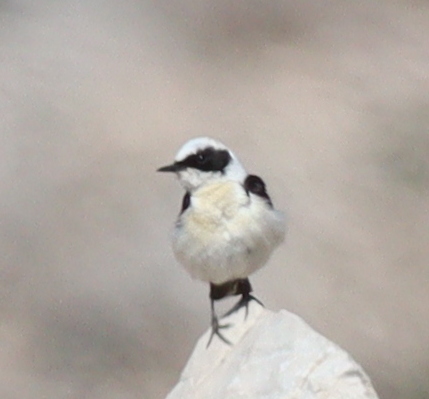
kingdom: Animalia
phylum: Chordata
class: Aves
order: Passeriformes
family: Muscicapidae
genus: Oenanthe
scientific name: Oenanthe hispanica
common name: Black-eared wheatear
